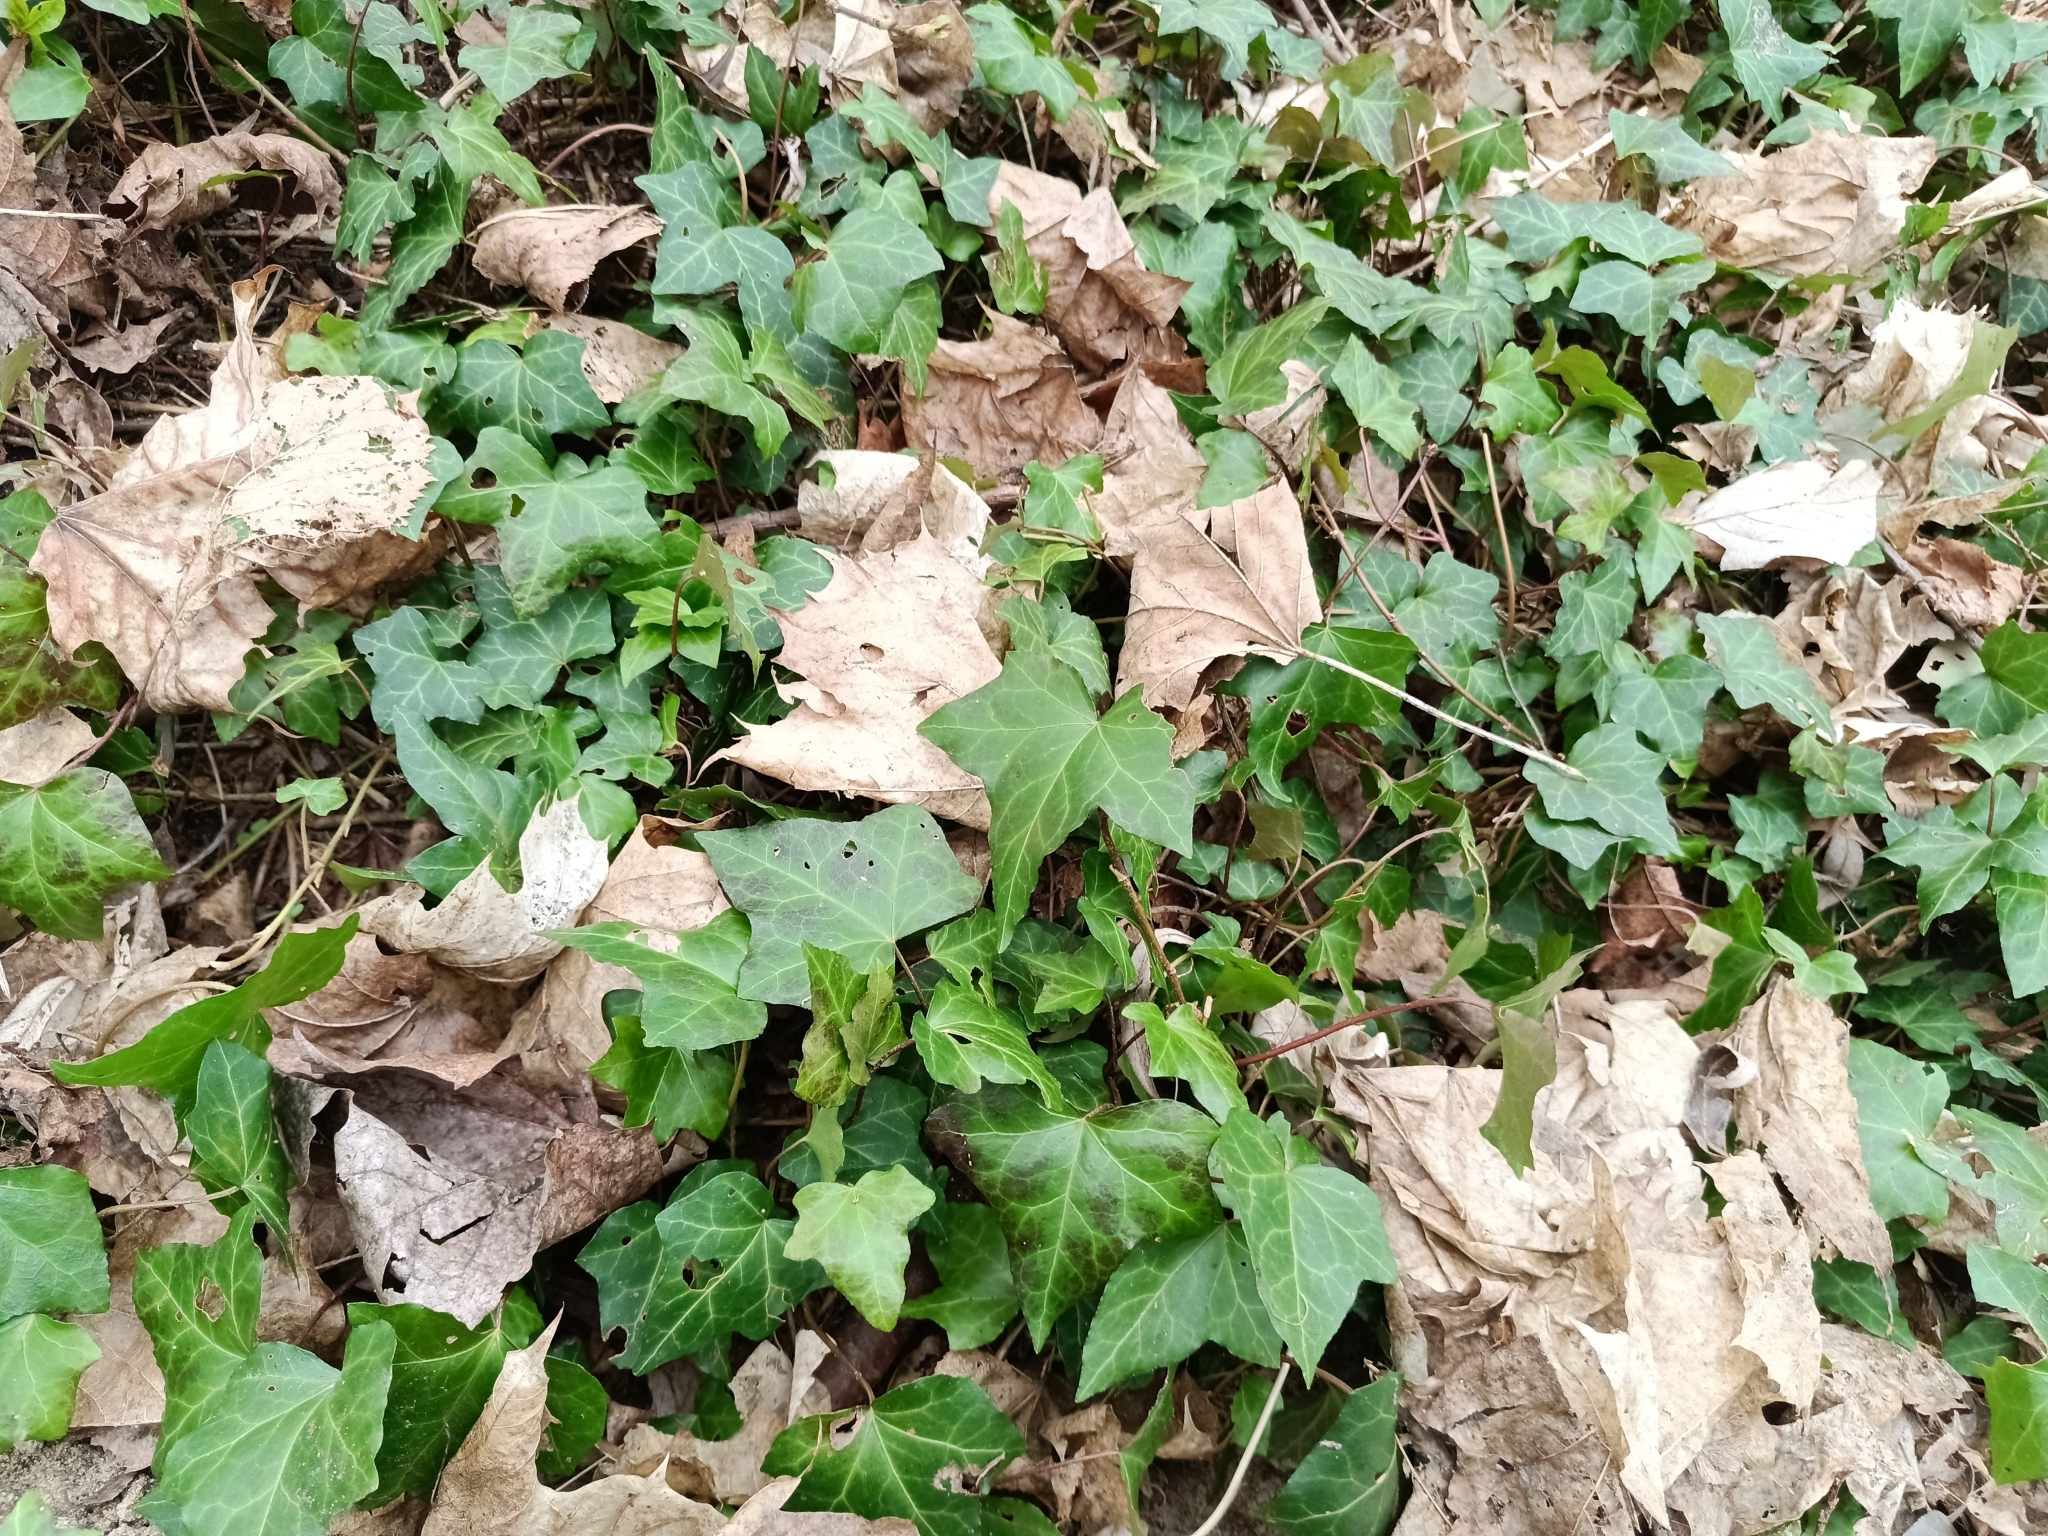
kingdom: Plantae
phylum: Tracheophyta
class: Magnoliopsida
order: Apiales
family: Araliaceae
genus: Hedera
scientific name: Hedera helix
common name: Ivy
